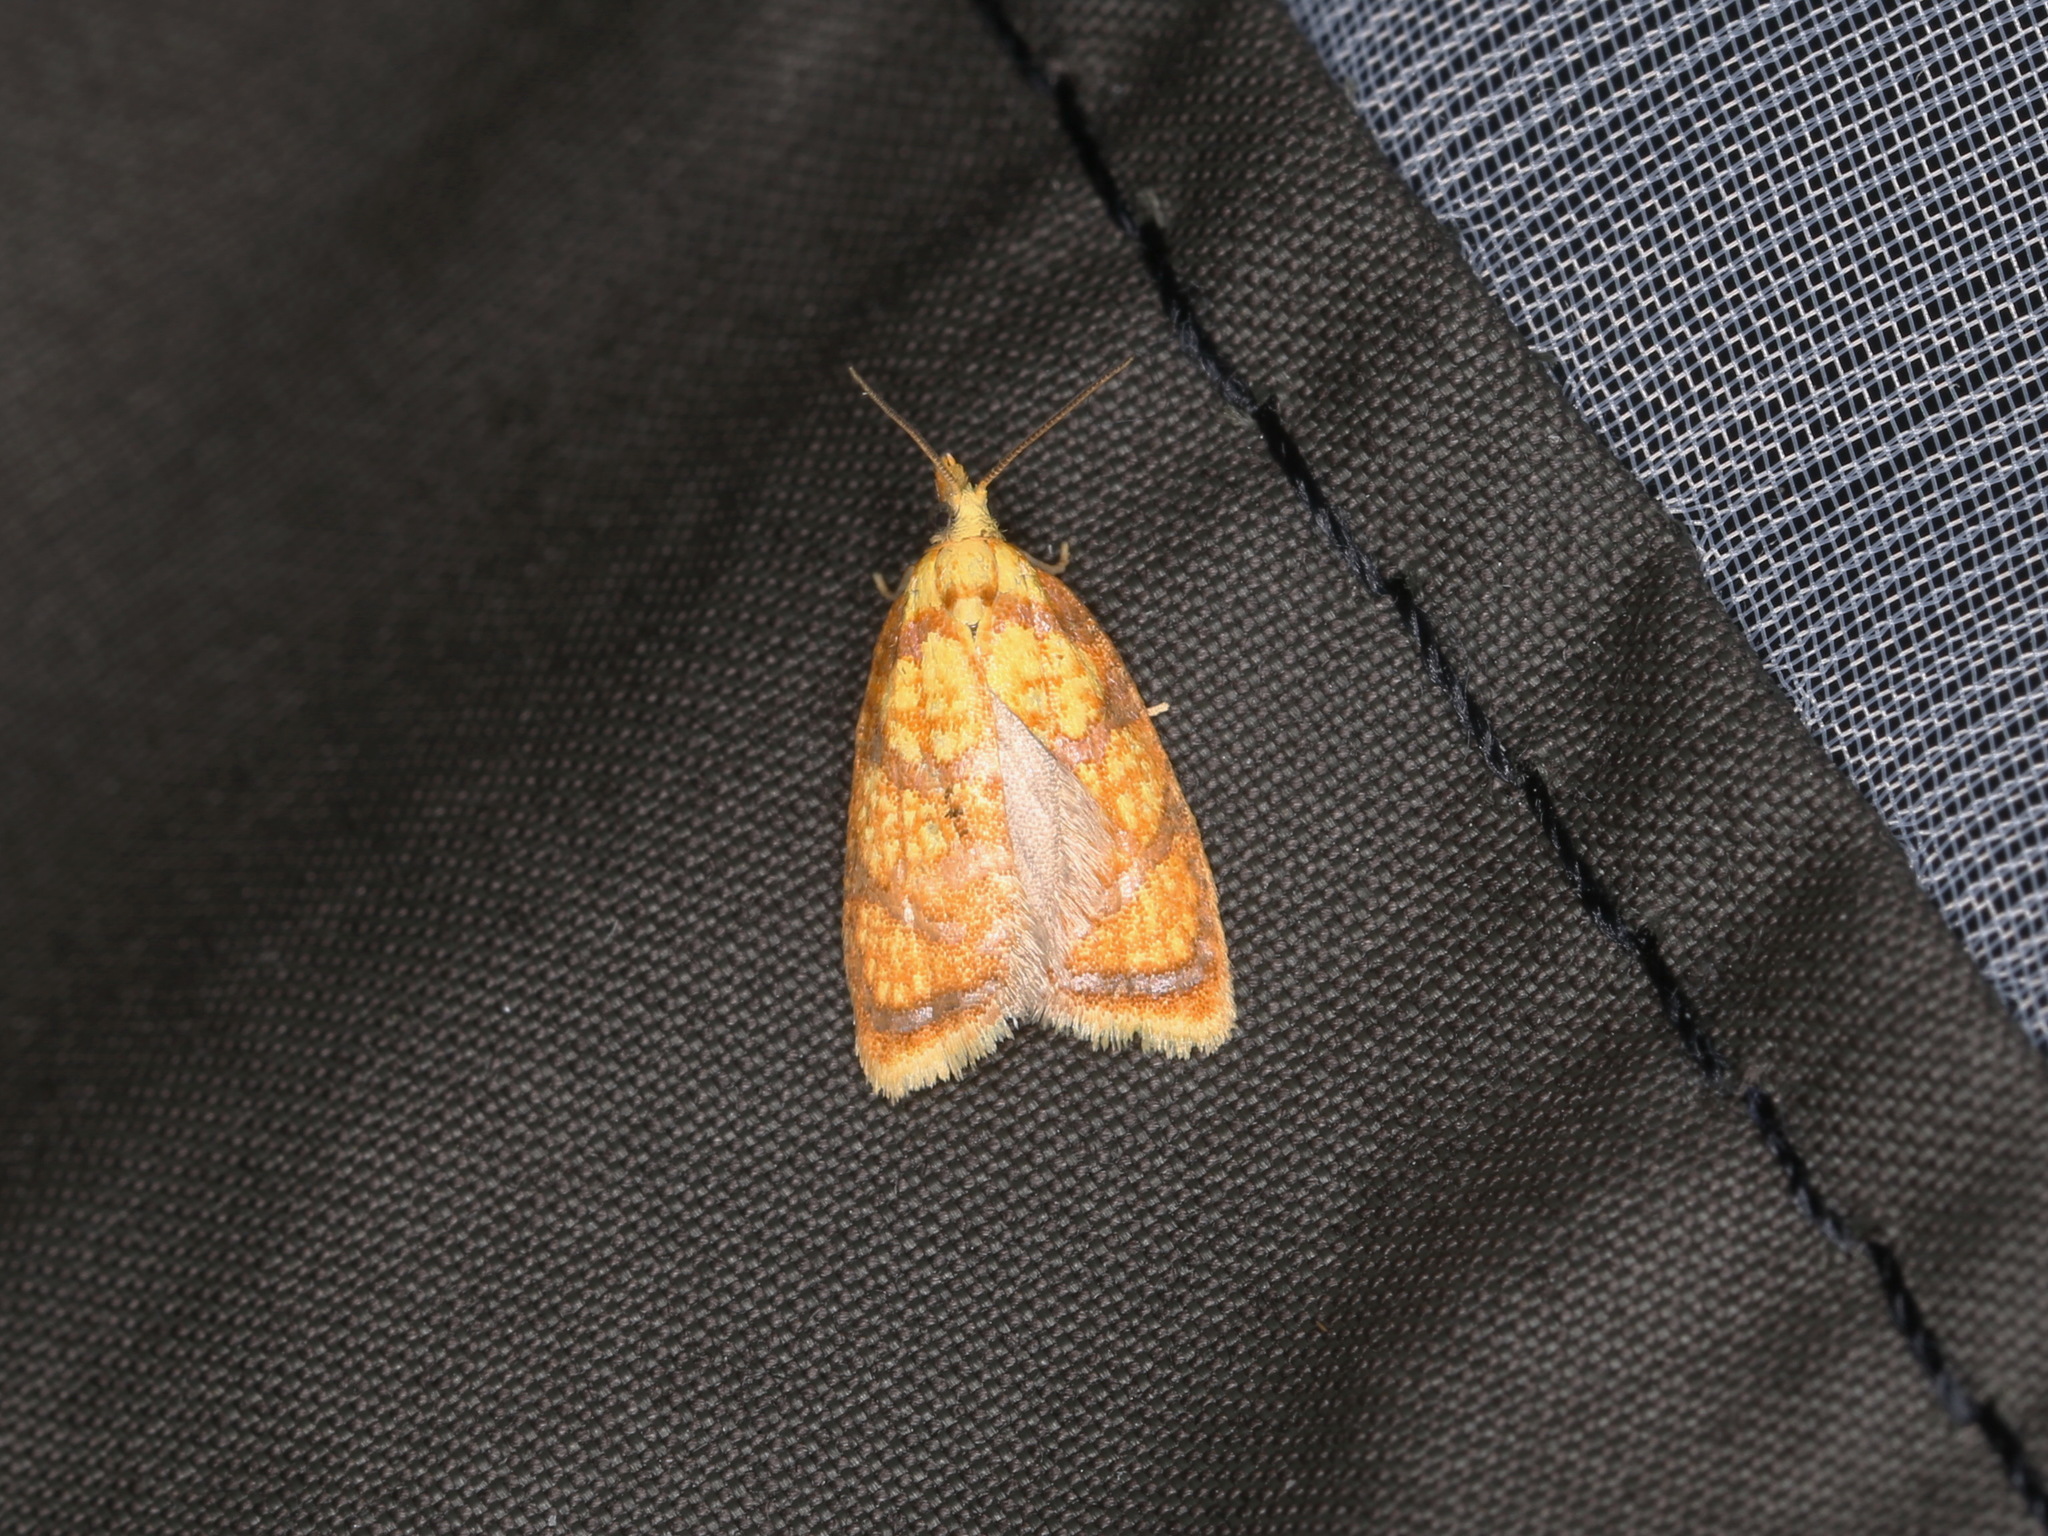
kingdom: Animalia
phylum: Arthropoda
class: Insecta
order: Lepidoptera
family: Tortricidae
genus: Acleris
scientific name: Acleris bergmanniana
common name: Yellow rose button
